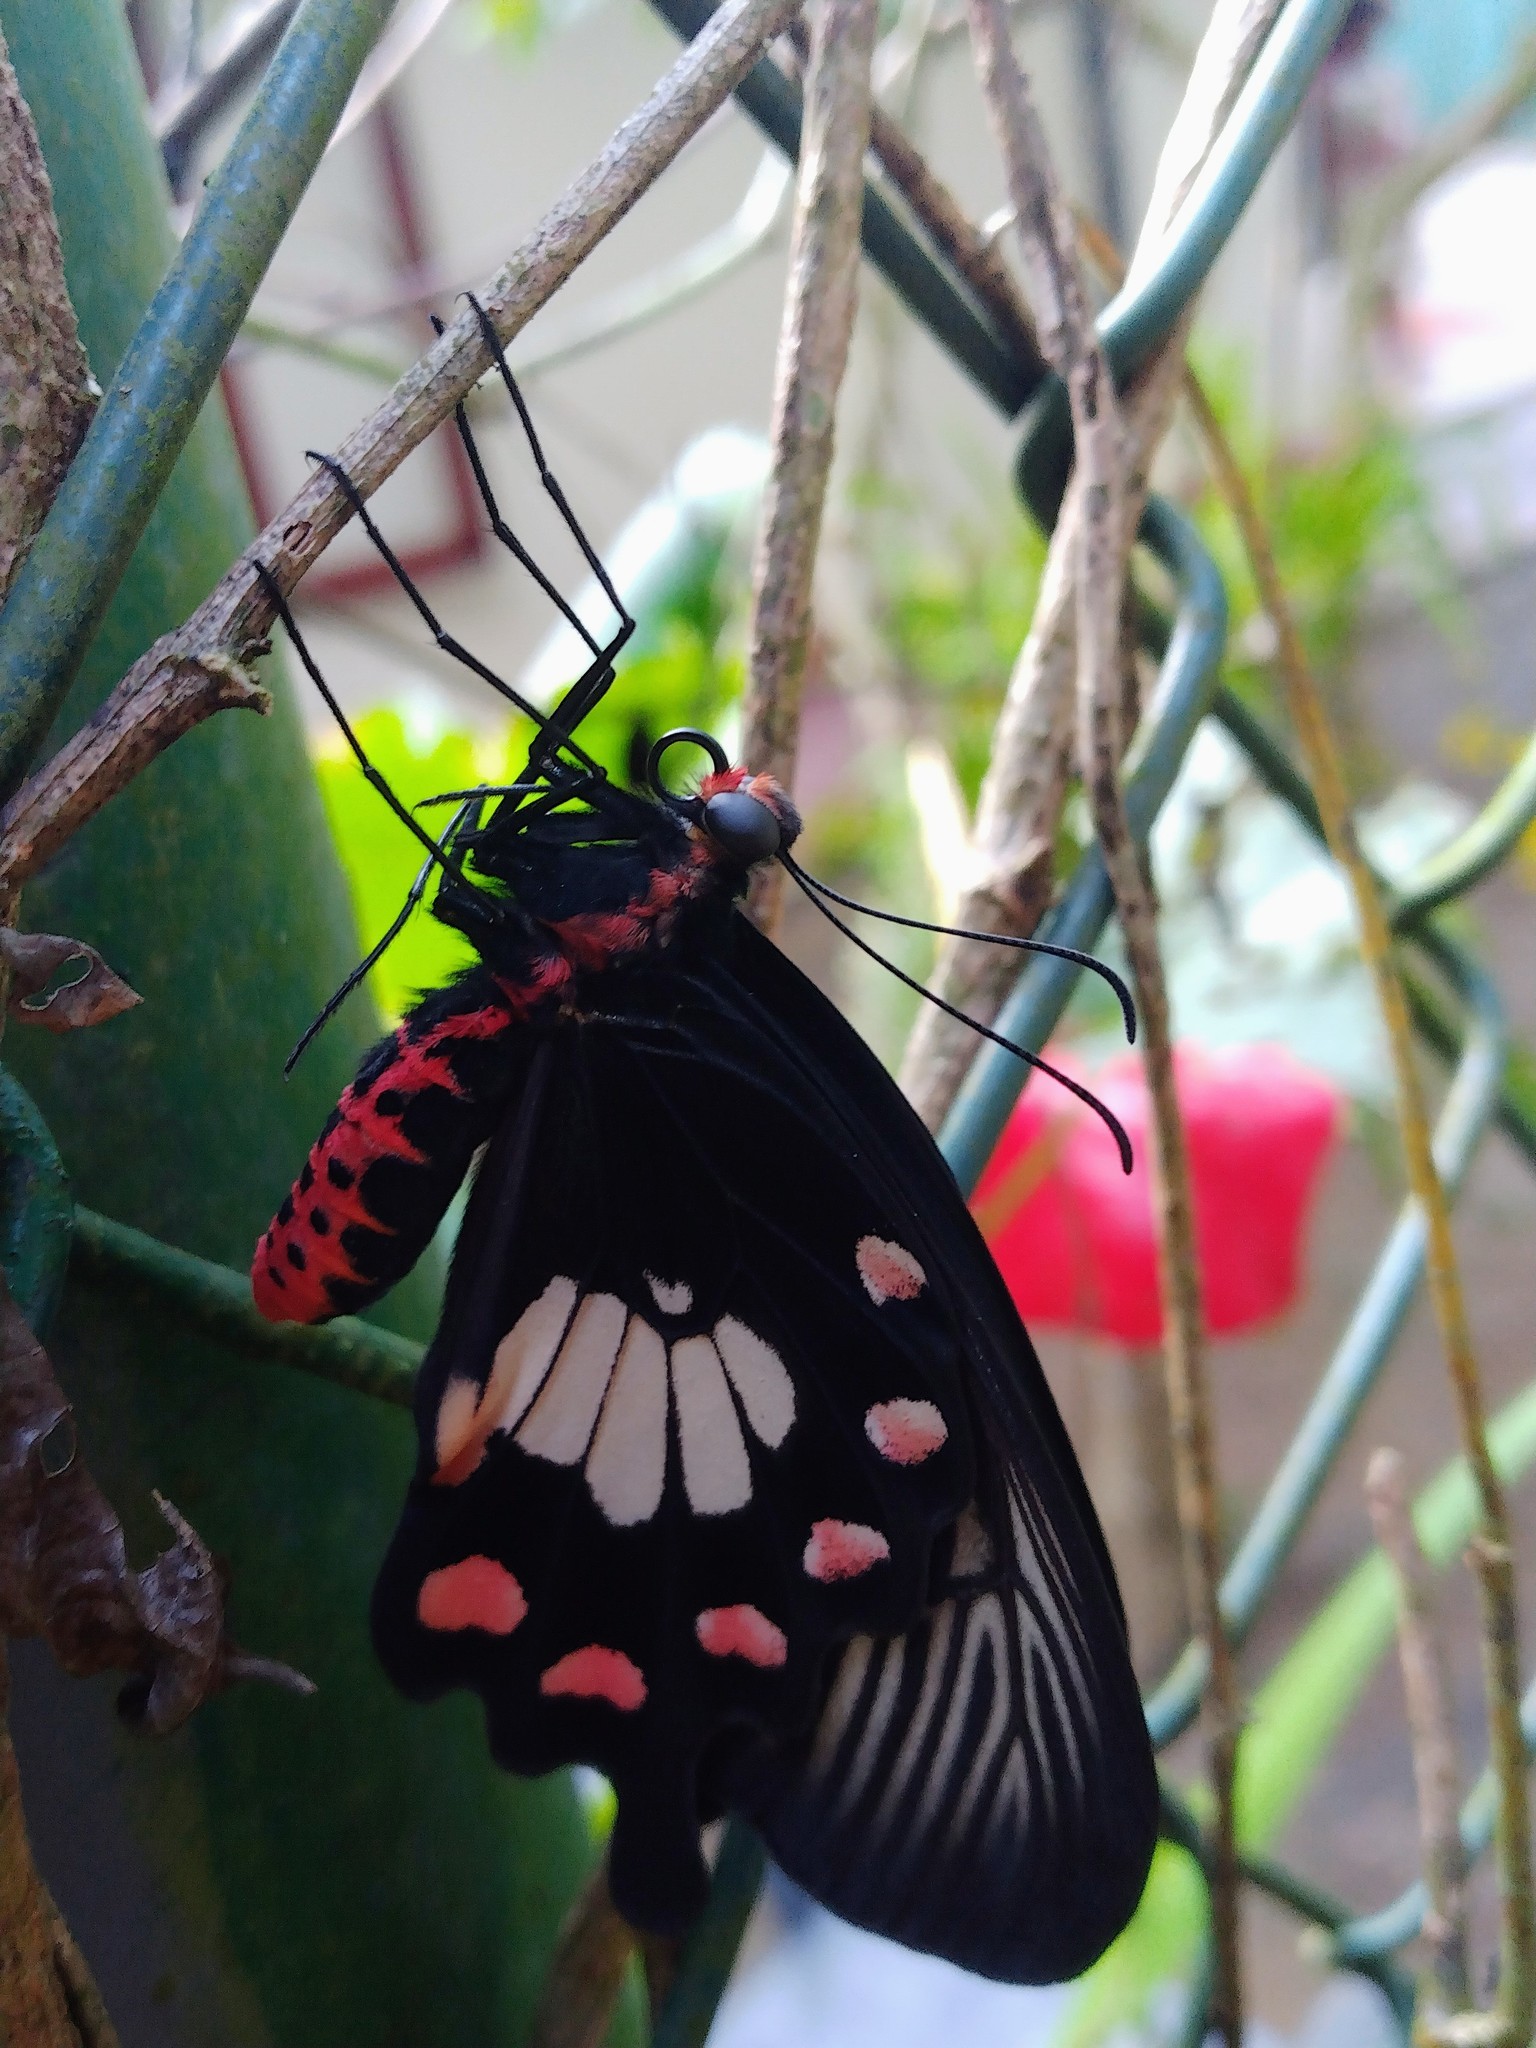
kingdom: Animalia
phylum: Arthropoda
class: Insecta
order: Lepidoptera
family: Papilionidae
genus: Pachliopta
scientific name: Pachliopta aristolochiae
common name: Common rose
